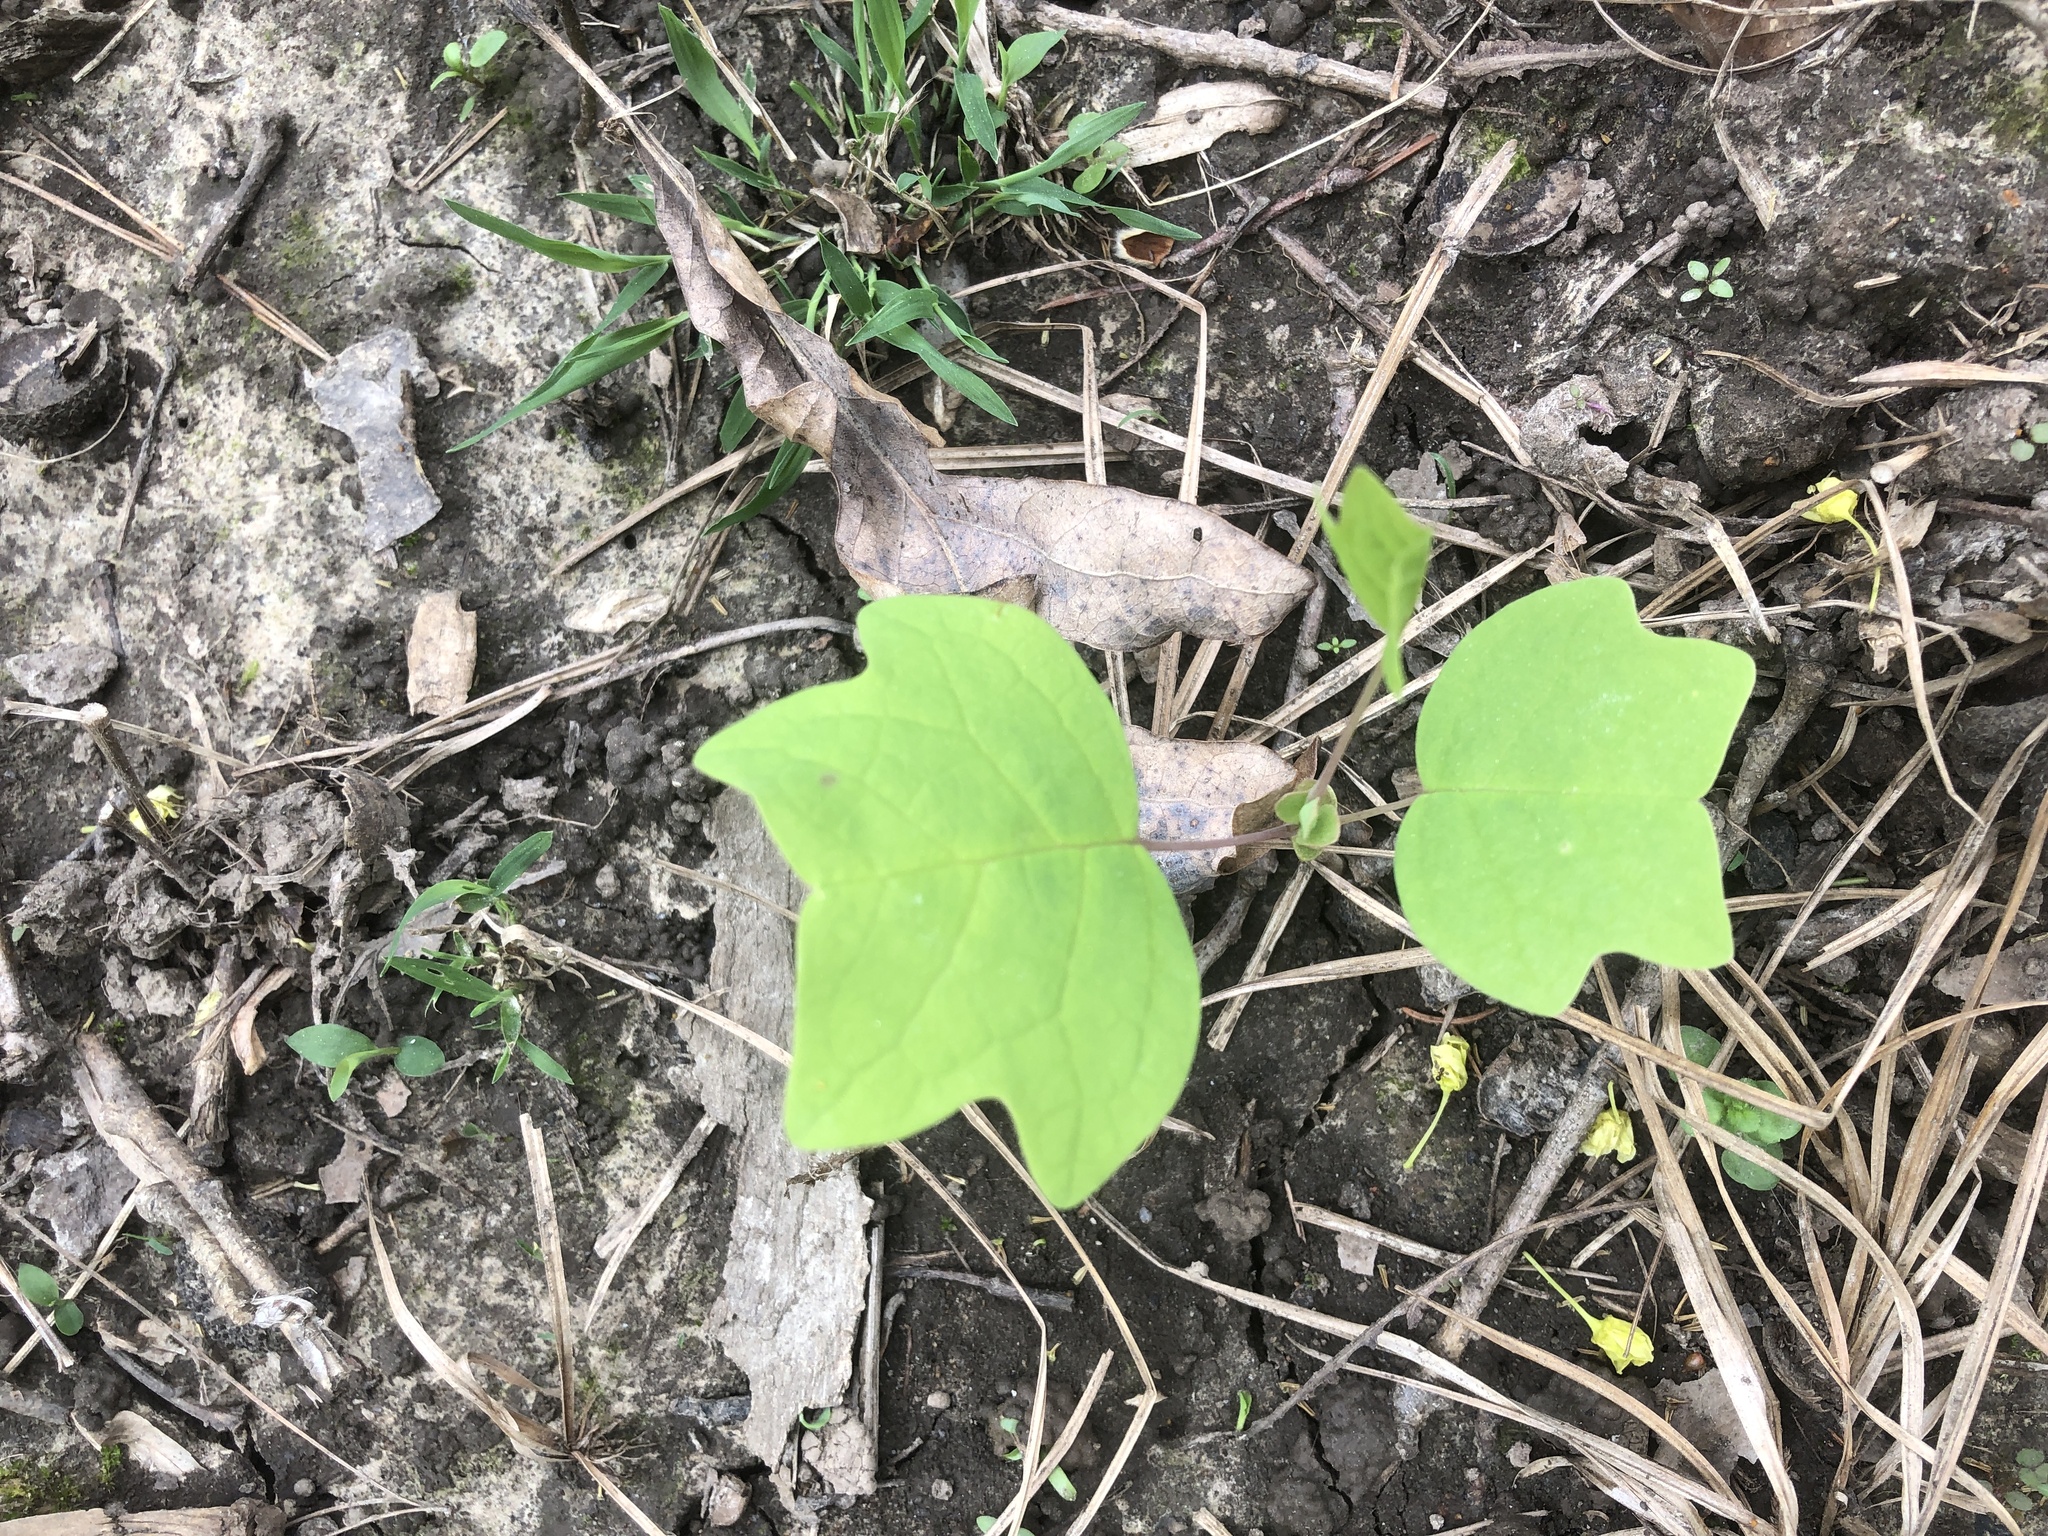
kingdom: Plantae
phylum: Tracheophyta
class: Magnoliopsida
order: Magnoliales
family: Magnoliaceae
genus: Liriodendron
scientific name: Liriodendron tulipifera
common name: Tulip tree
